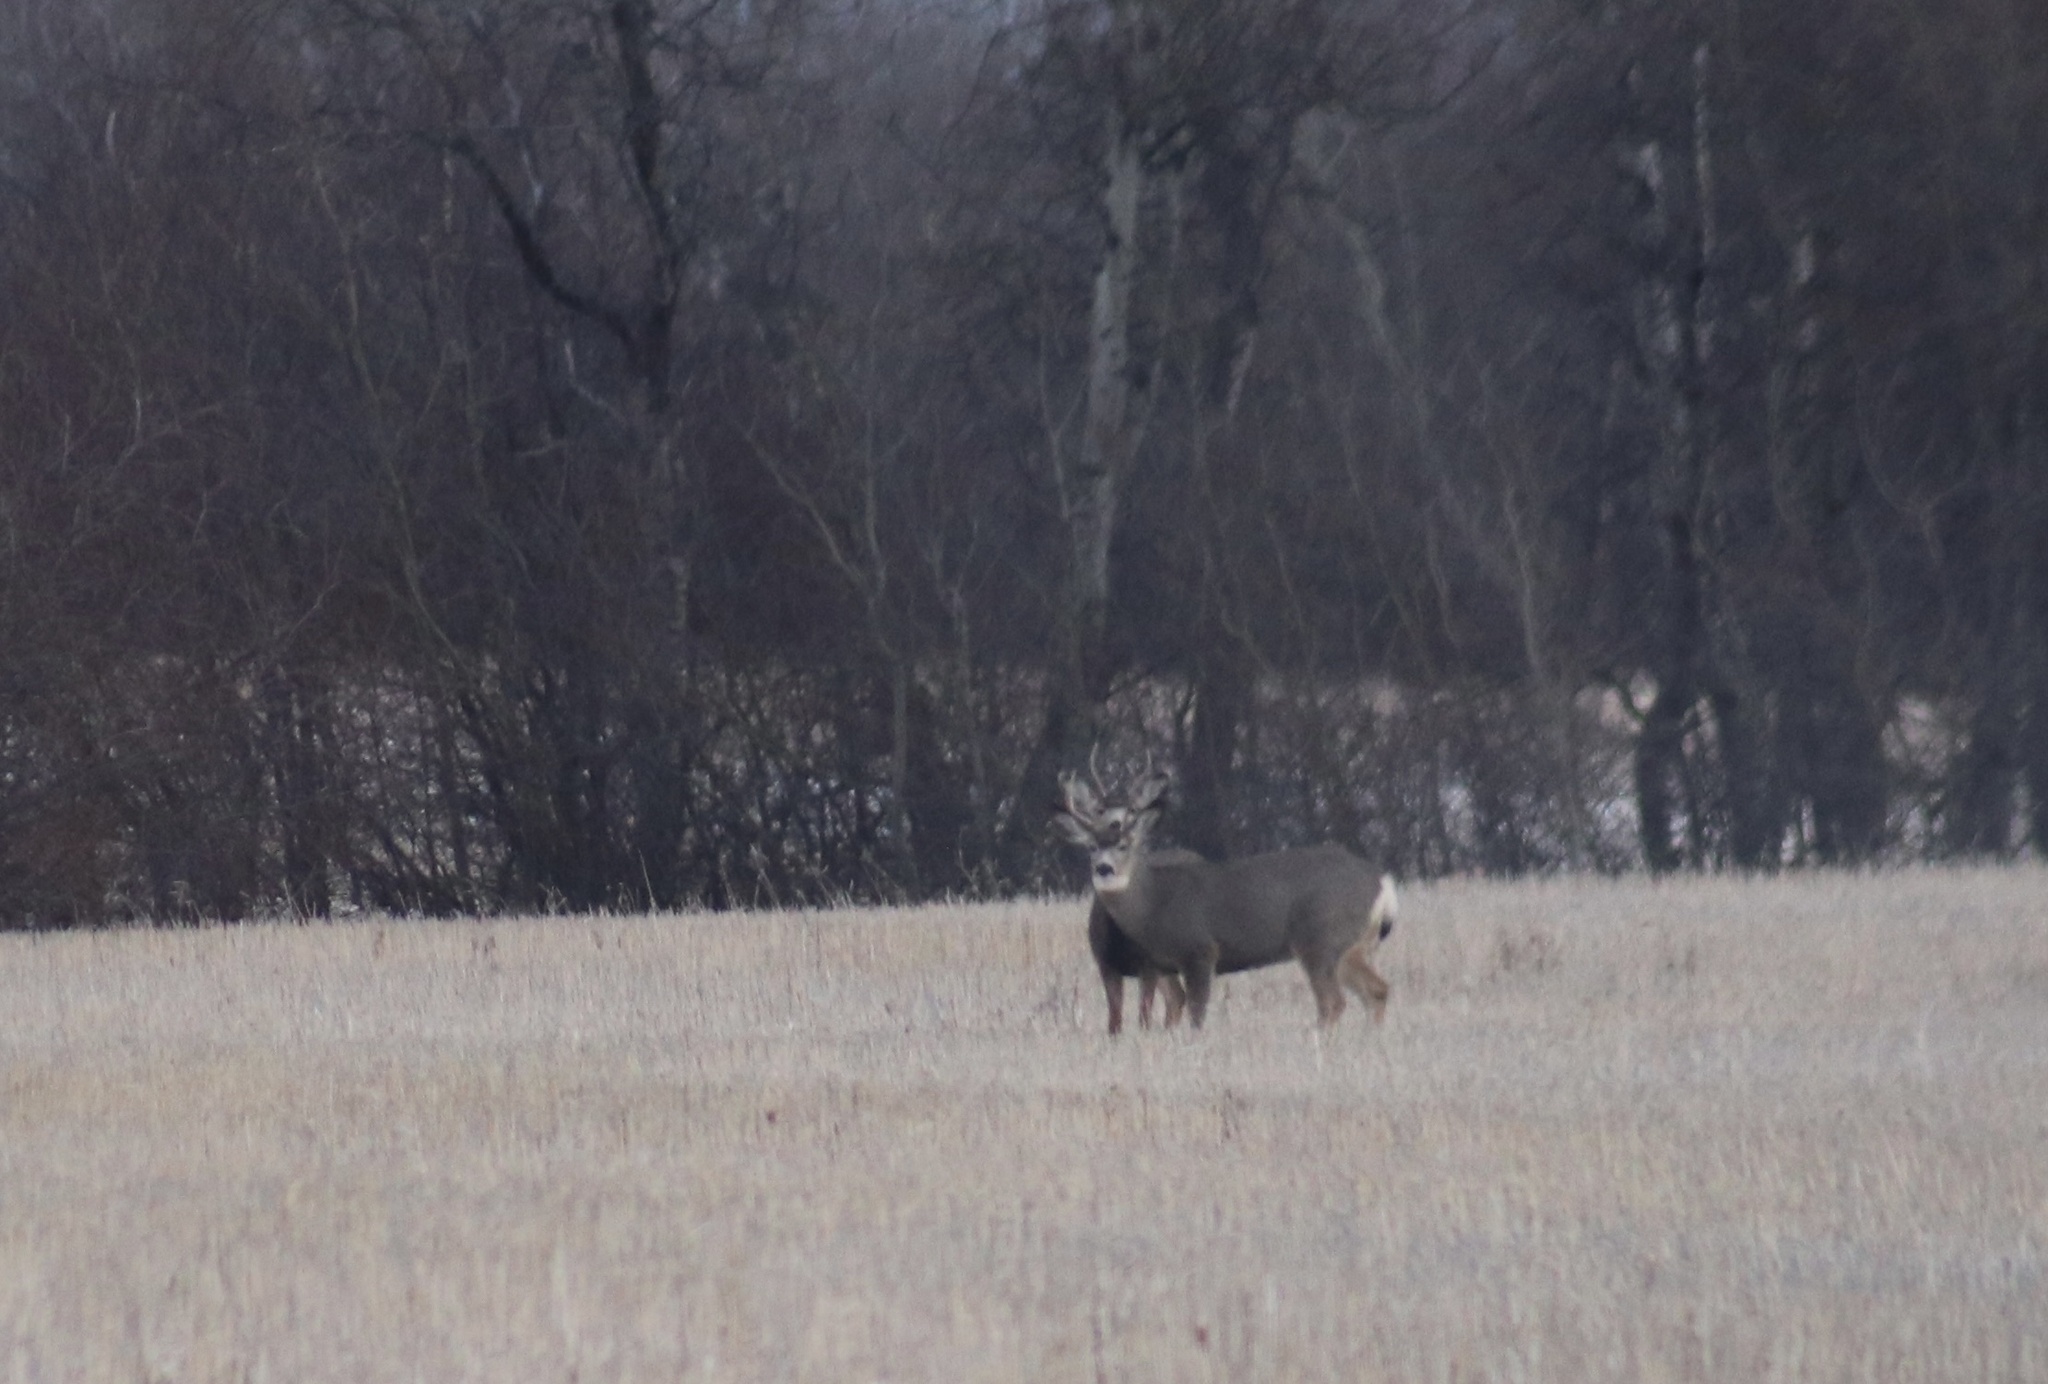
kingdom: Animalia
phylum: Chordata
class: Mammalia
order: Artiodactyla
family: Cervidae
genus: Odocoileus
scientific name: Odocoileus hemionus
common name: Mule deer
